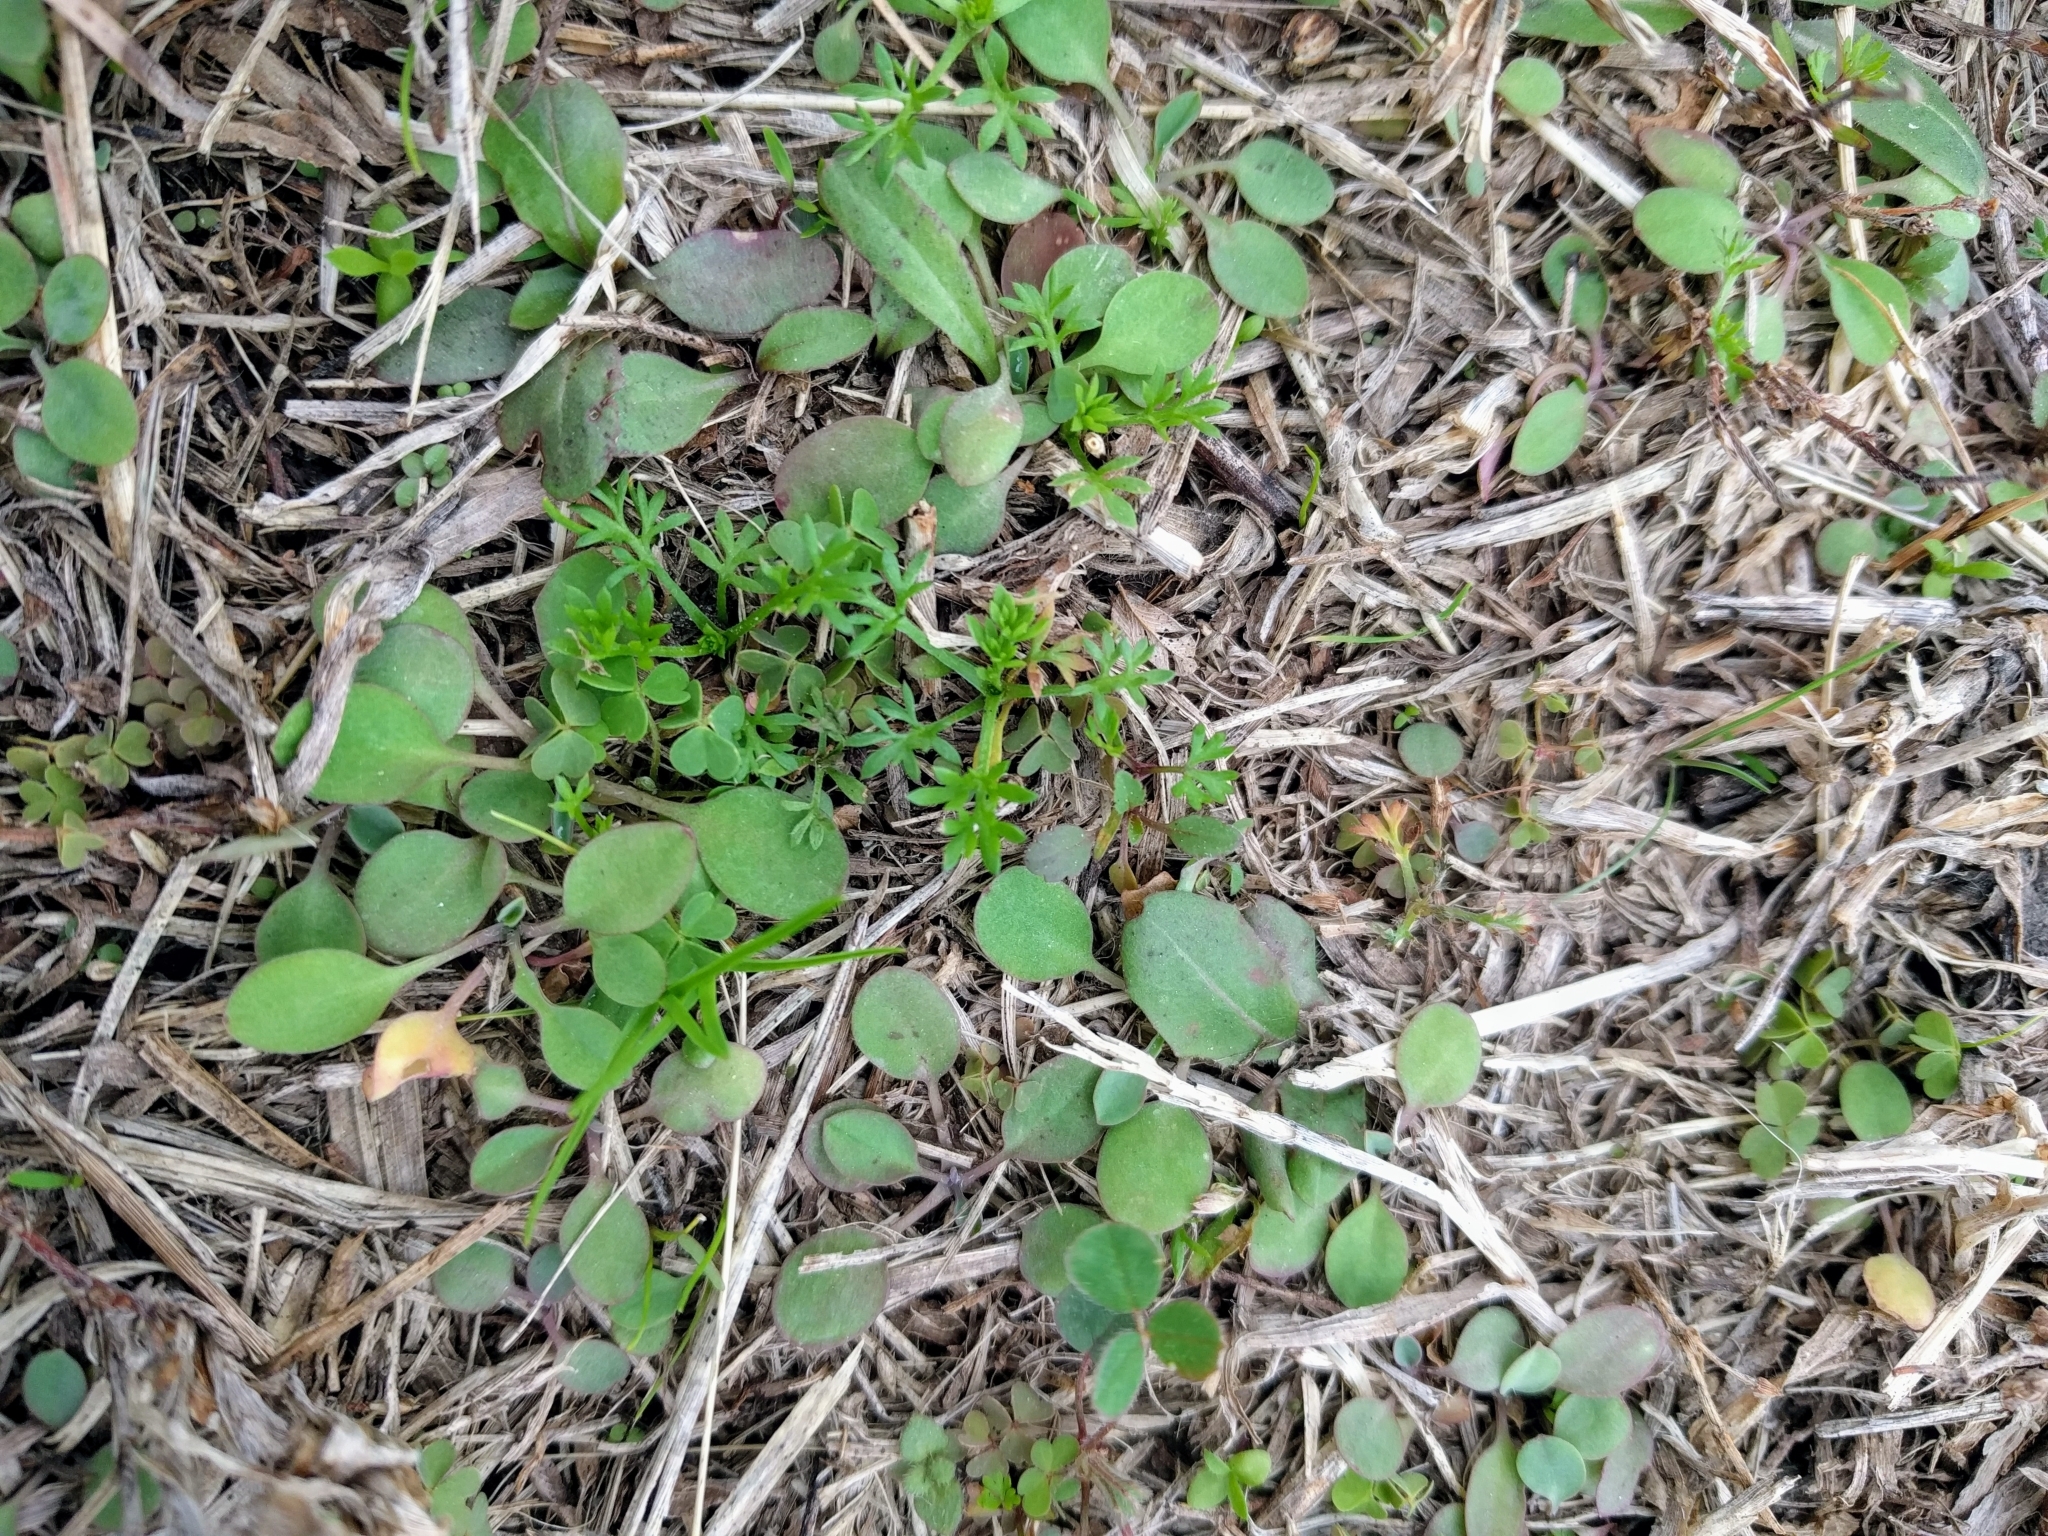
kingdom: Plantae
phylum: Tracheophyta
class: Magnoliopsida
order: Asterales
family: Asteraceae
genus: Soliva
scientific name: Soliva sessilis
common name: Field burrweed
